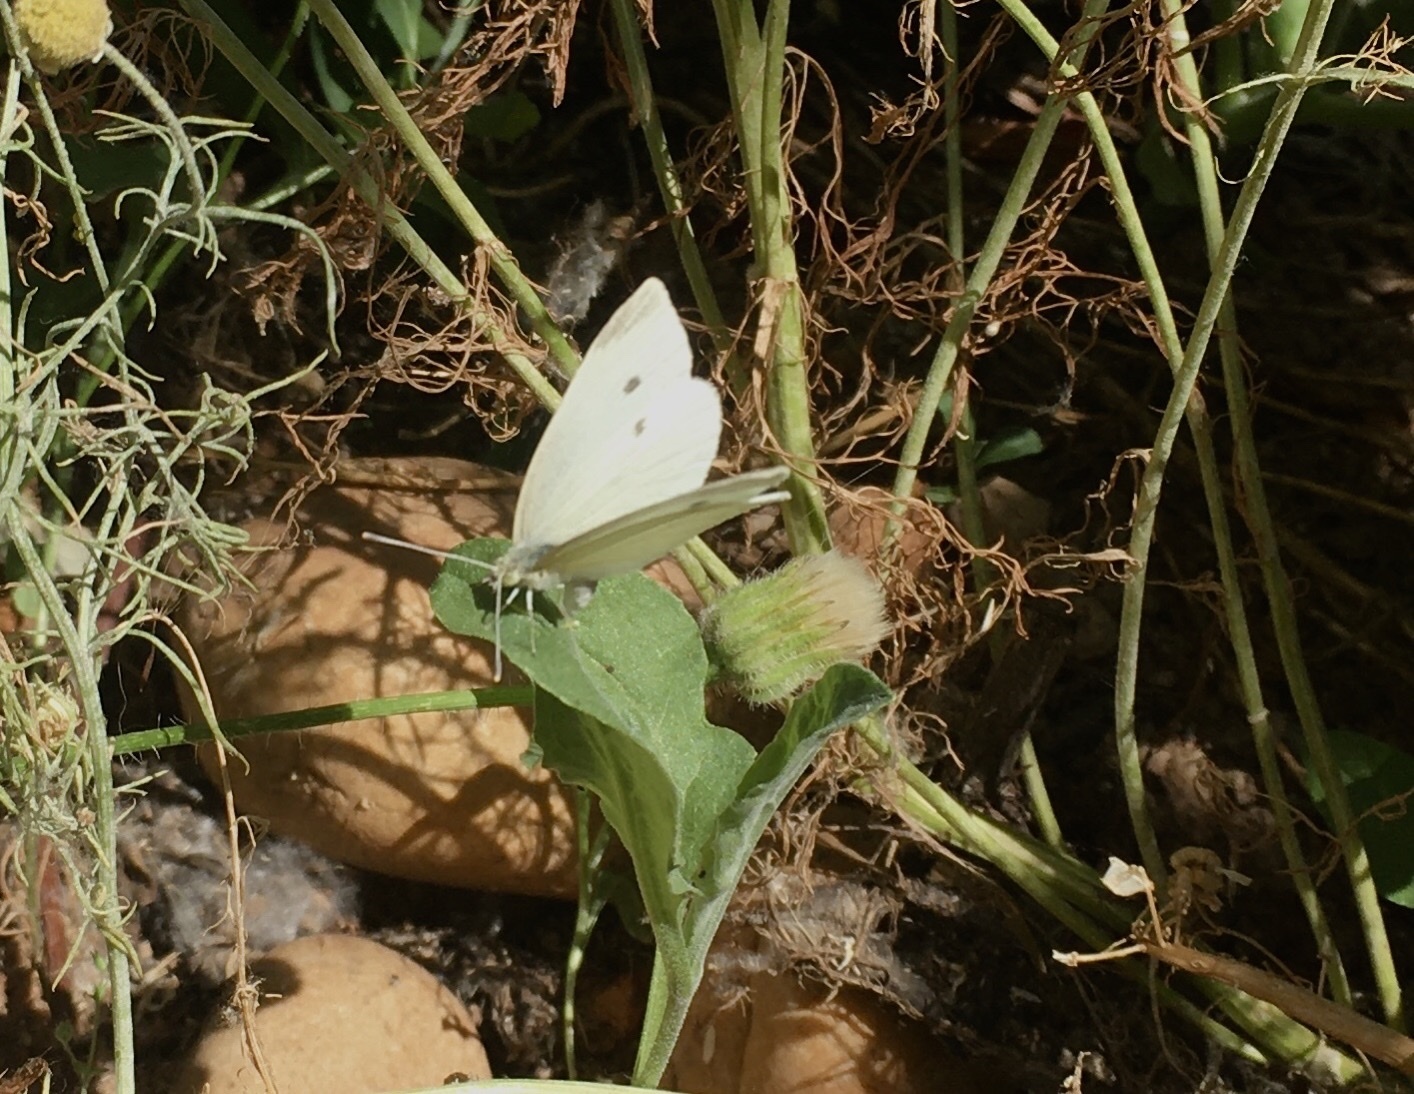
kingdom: Animalia
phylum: Arthropoda
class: Insecta
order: Lepidoptera
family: Pieridae
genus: Pieris
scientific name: Pieris rapae
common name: Small white
